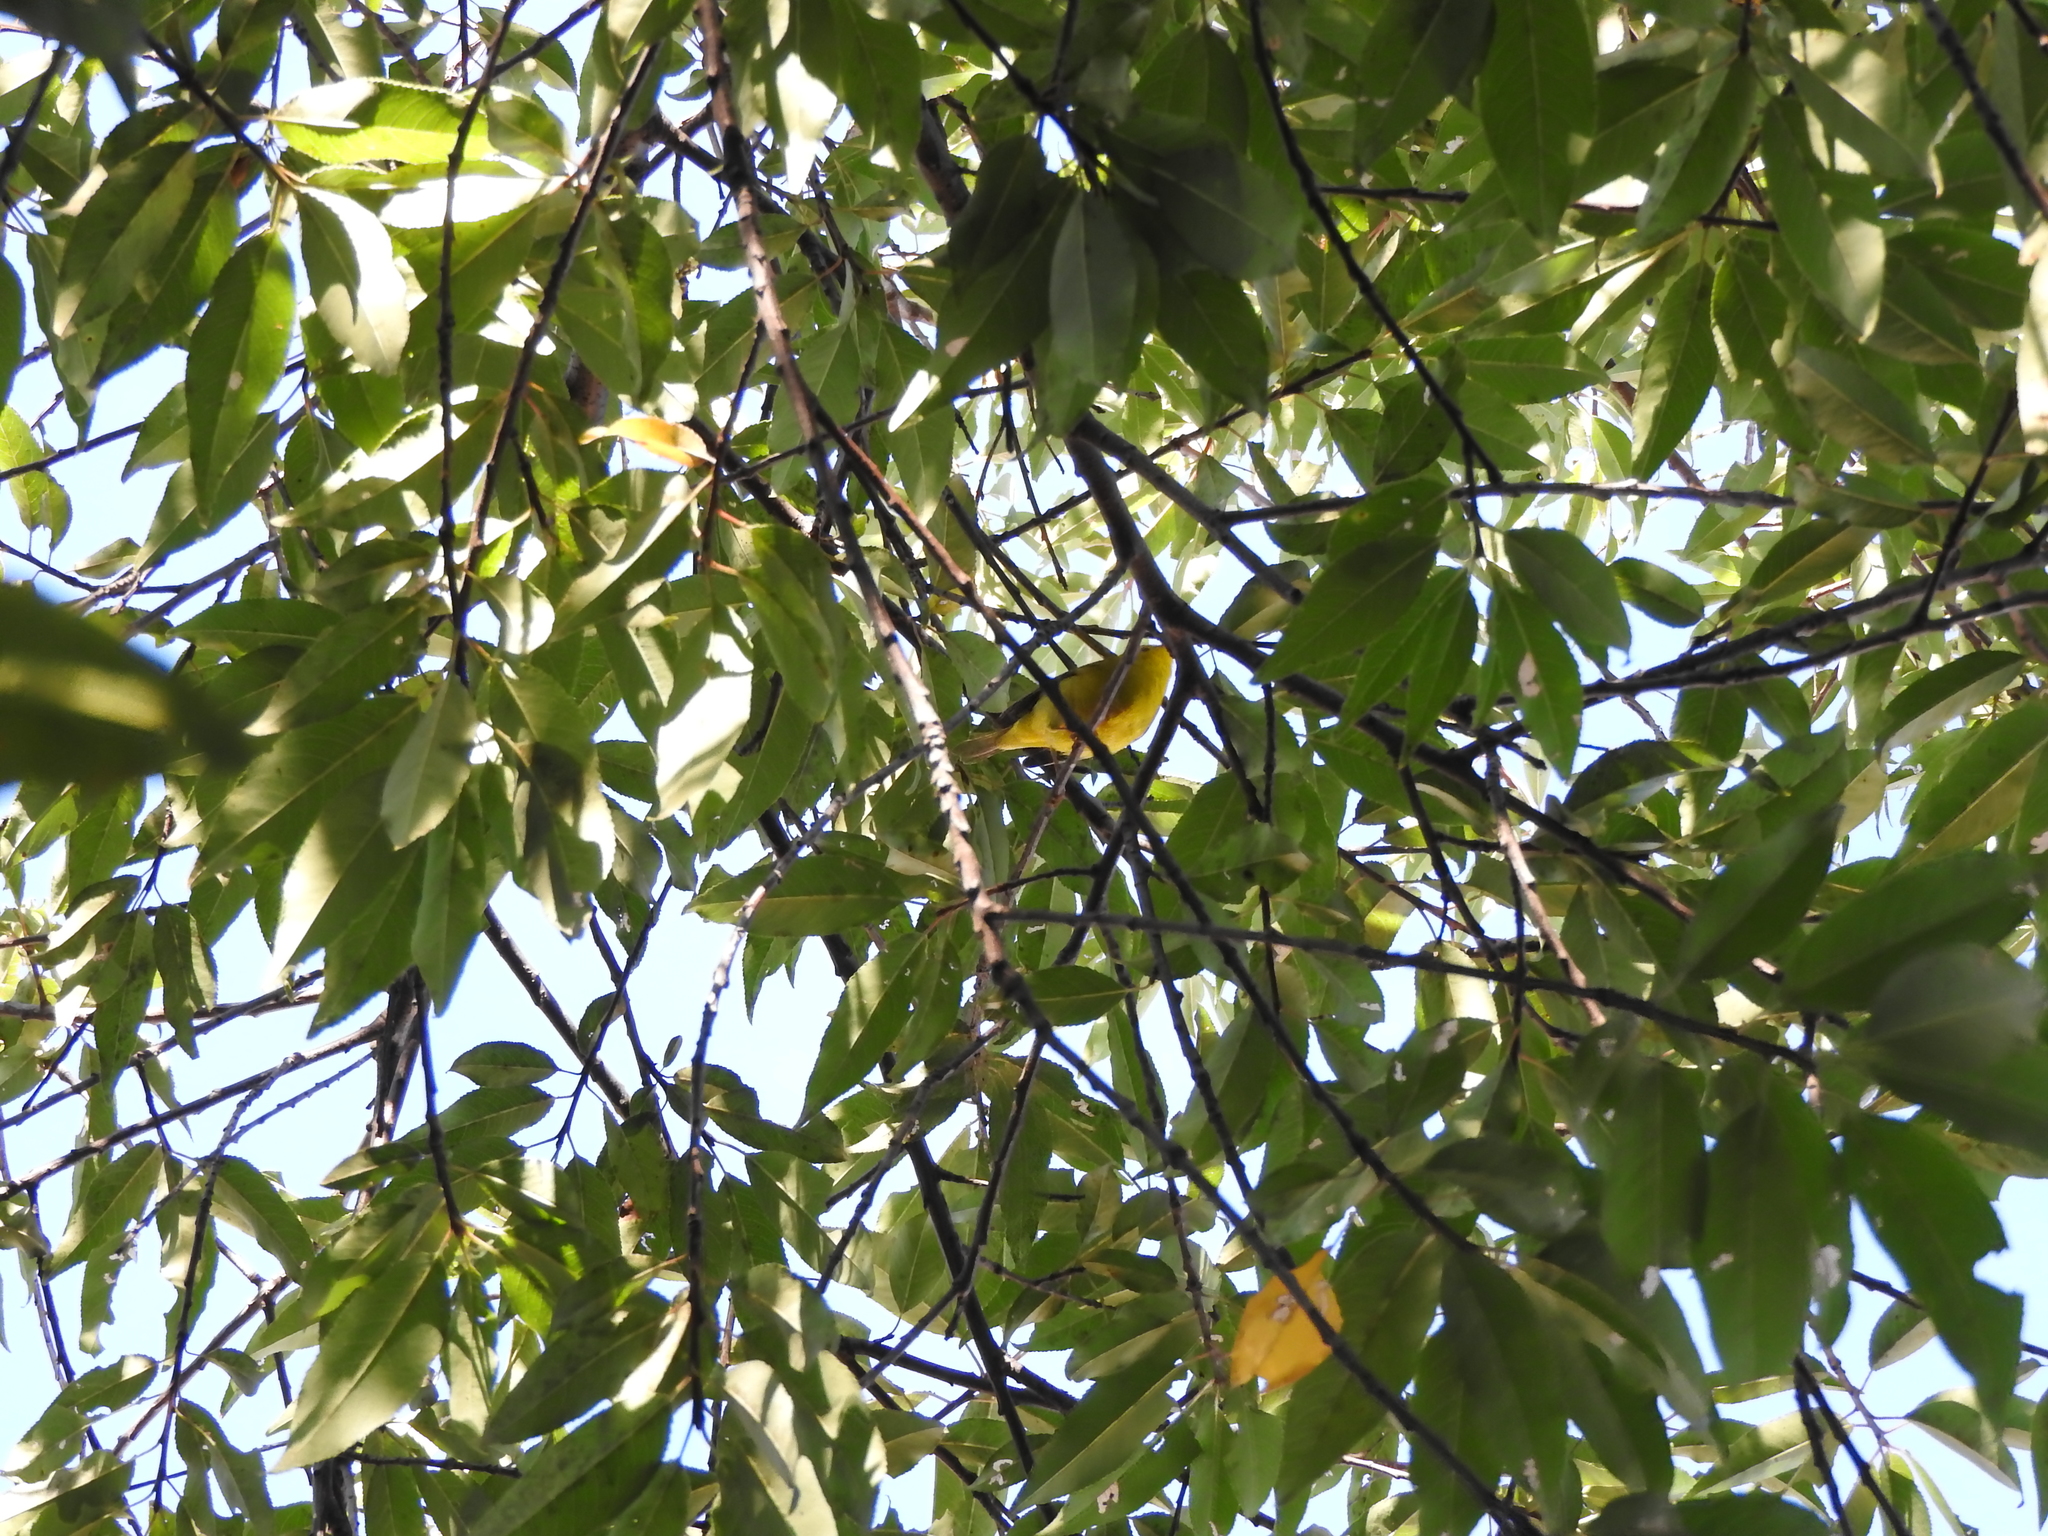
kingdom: Animalia
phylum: Chordata
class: Aves
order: Passeriformes
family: Parulidae
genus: Cardellina
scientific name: Cardellina pusilla
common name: Wilson's warbler
